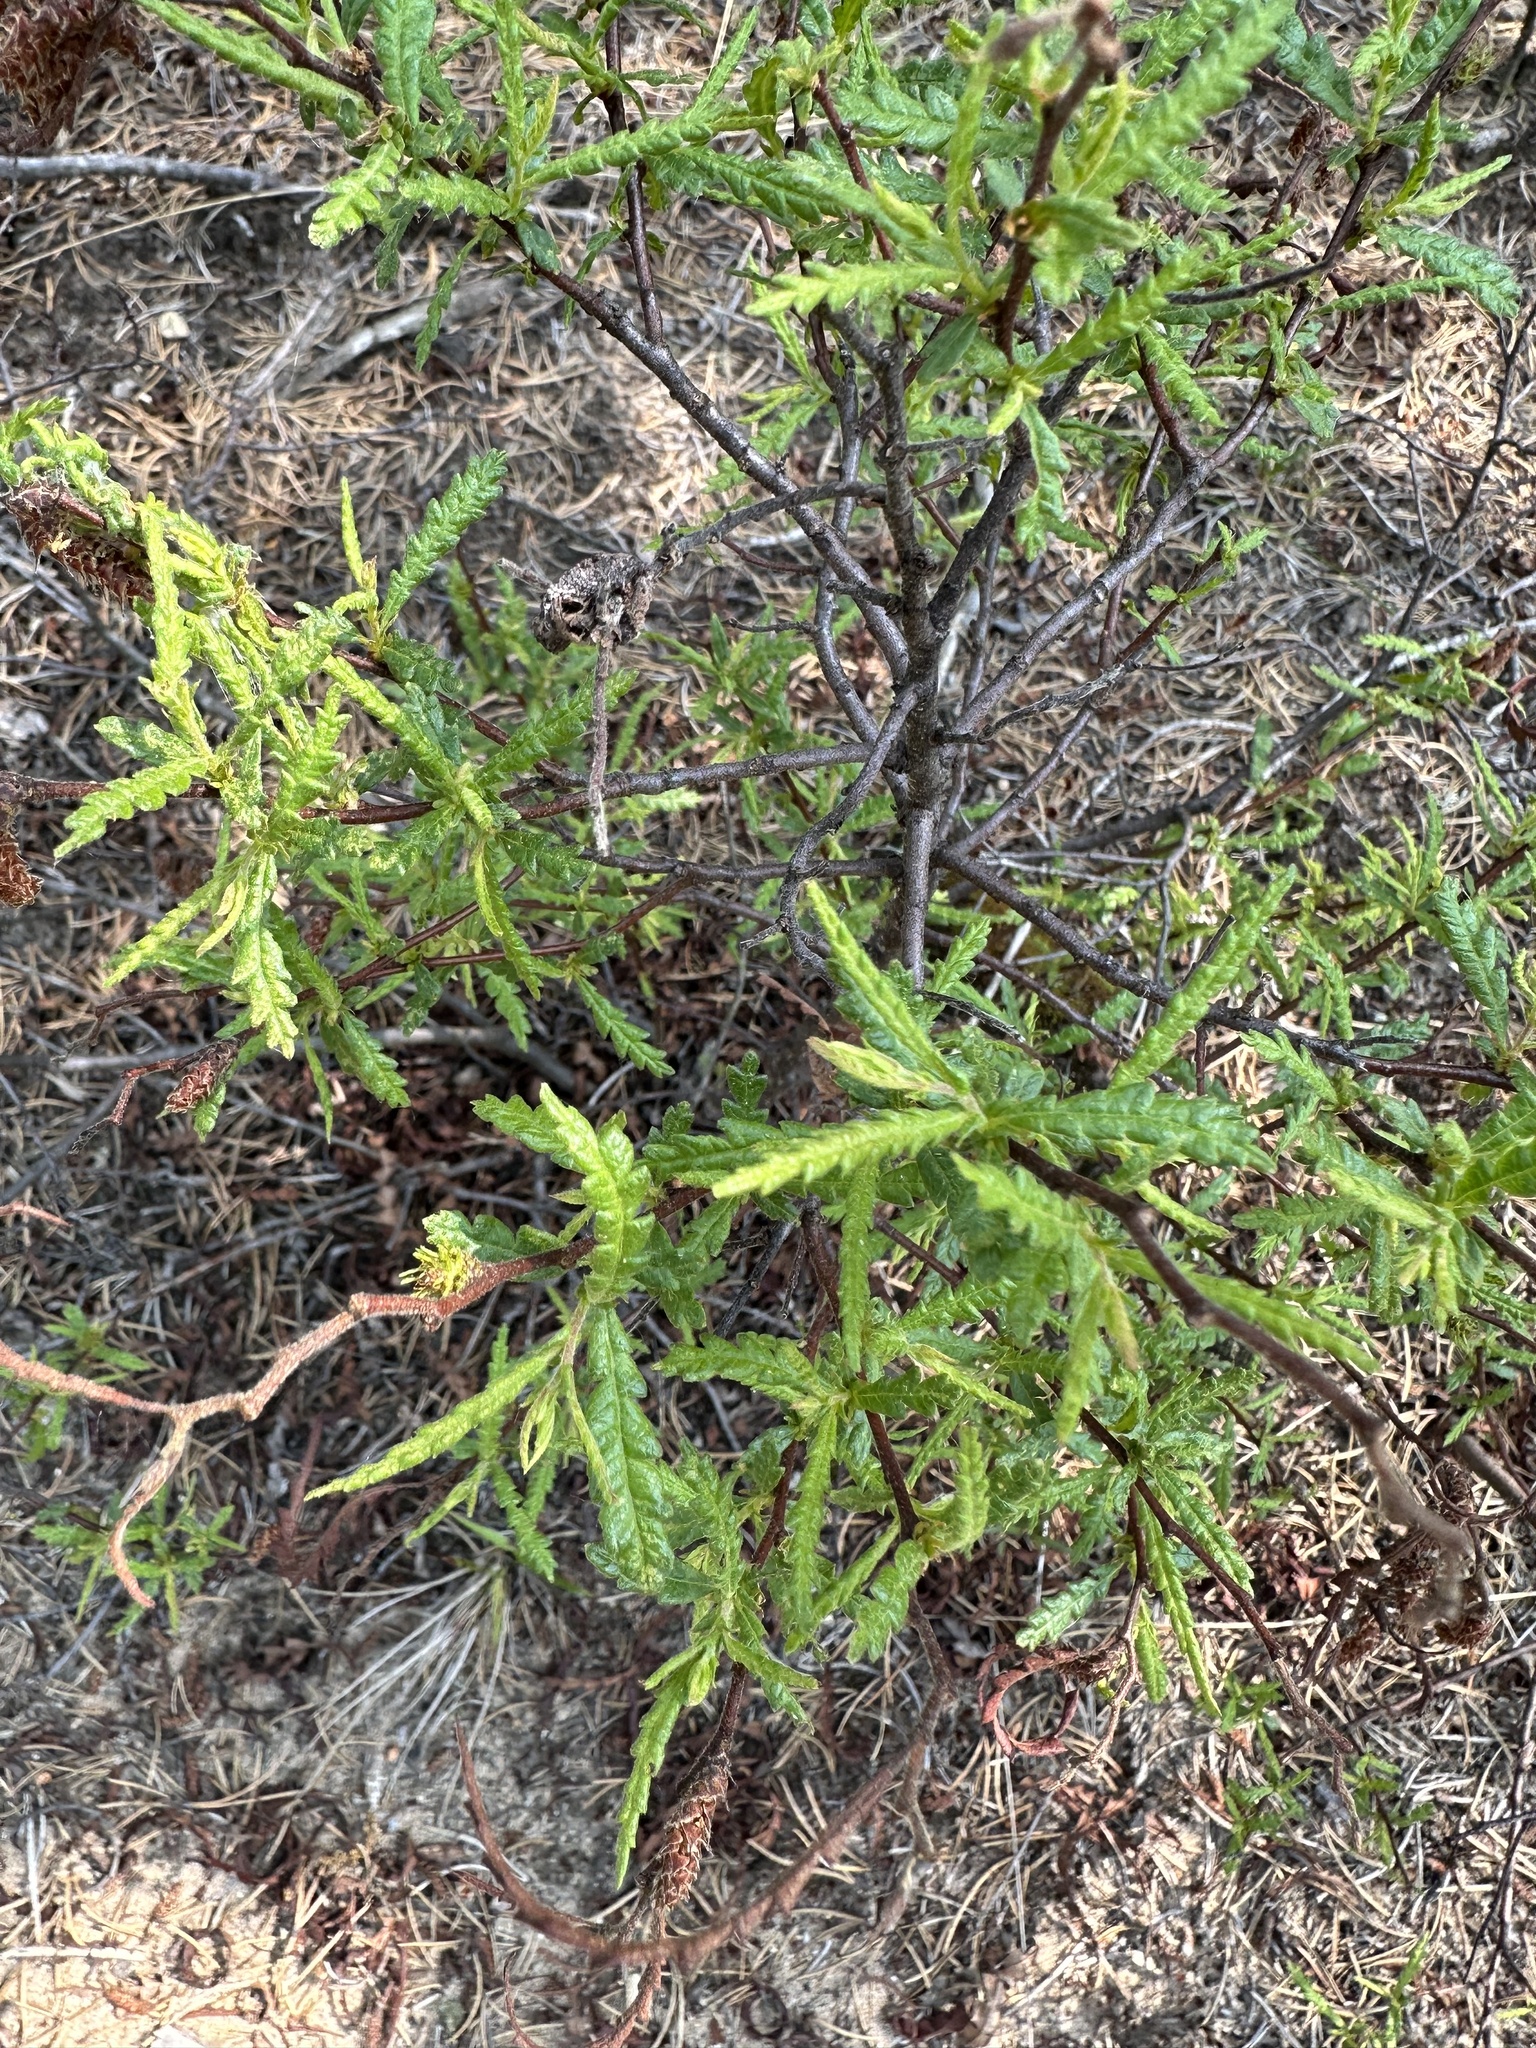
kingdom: Plantae
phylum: Tracheophyta
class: Magnoliopsida
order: Fagales
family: Myricaceae
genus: Comptonia
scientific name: Comptonia peregrina
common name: Sweet-fern
